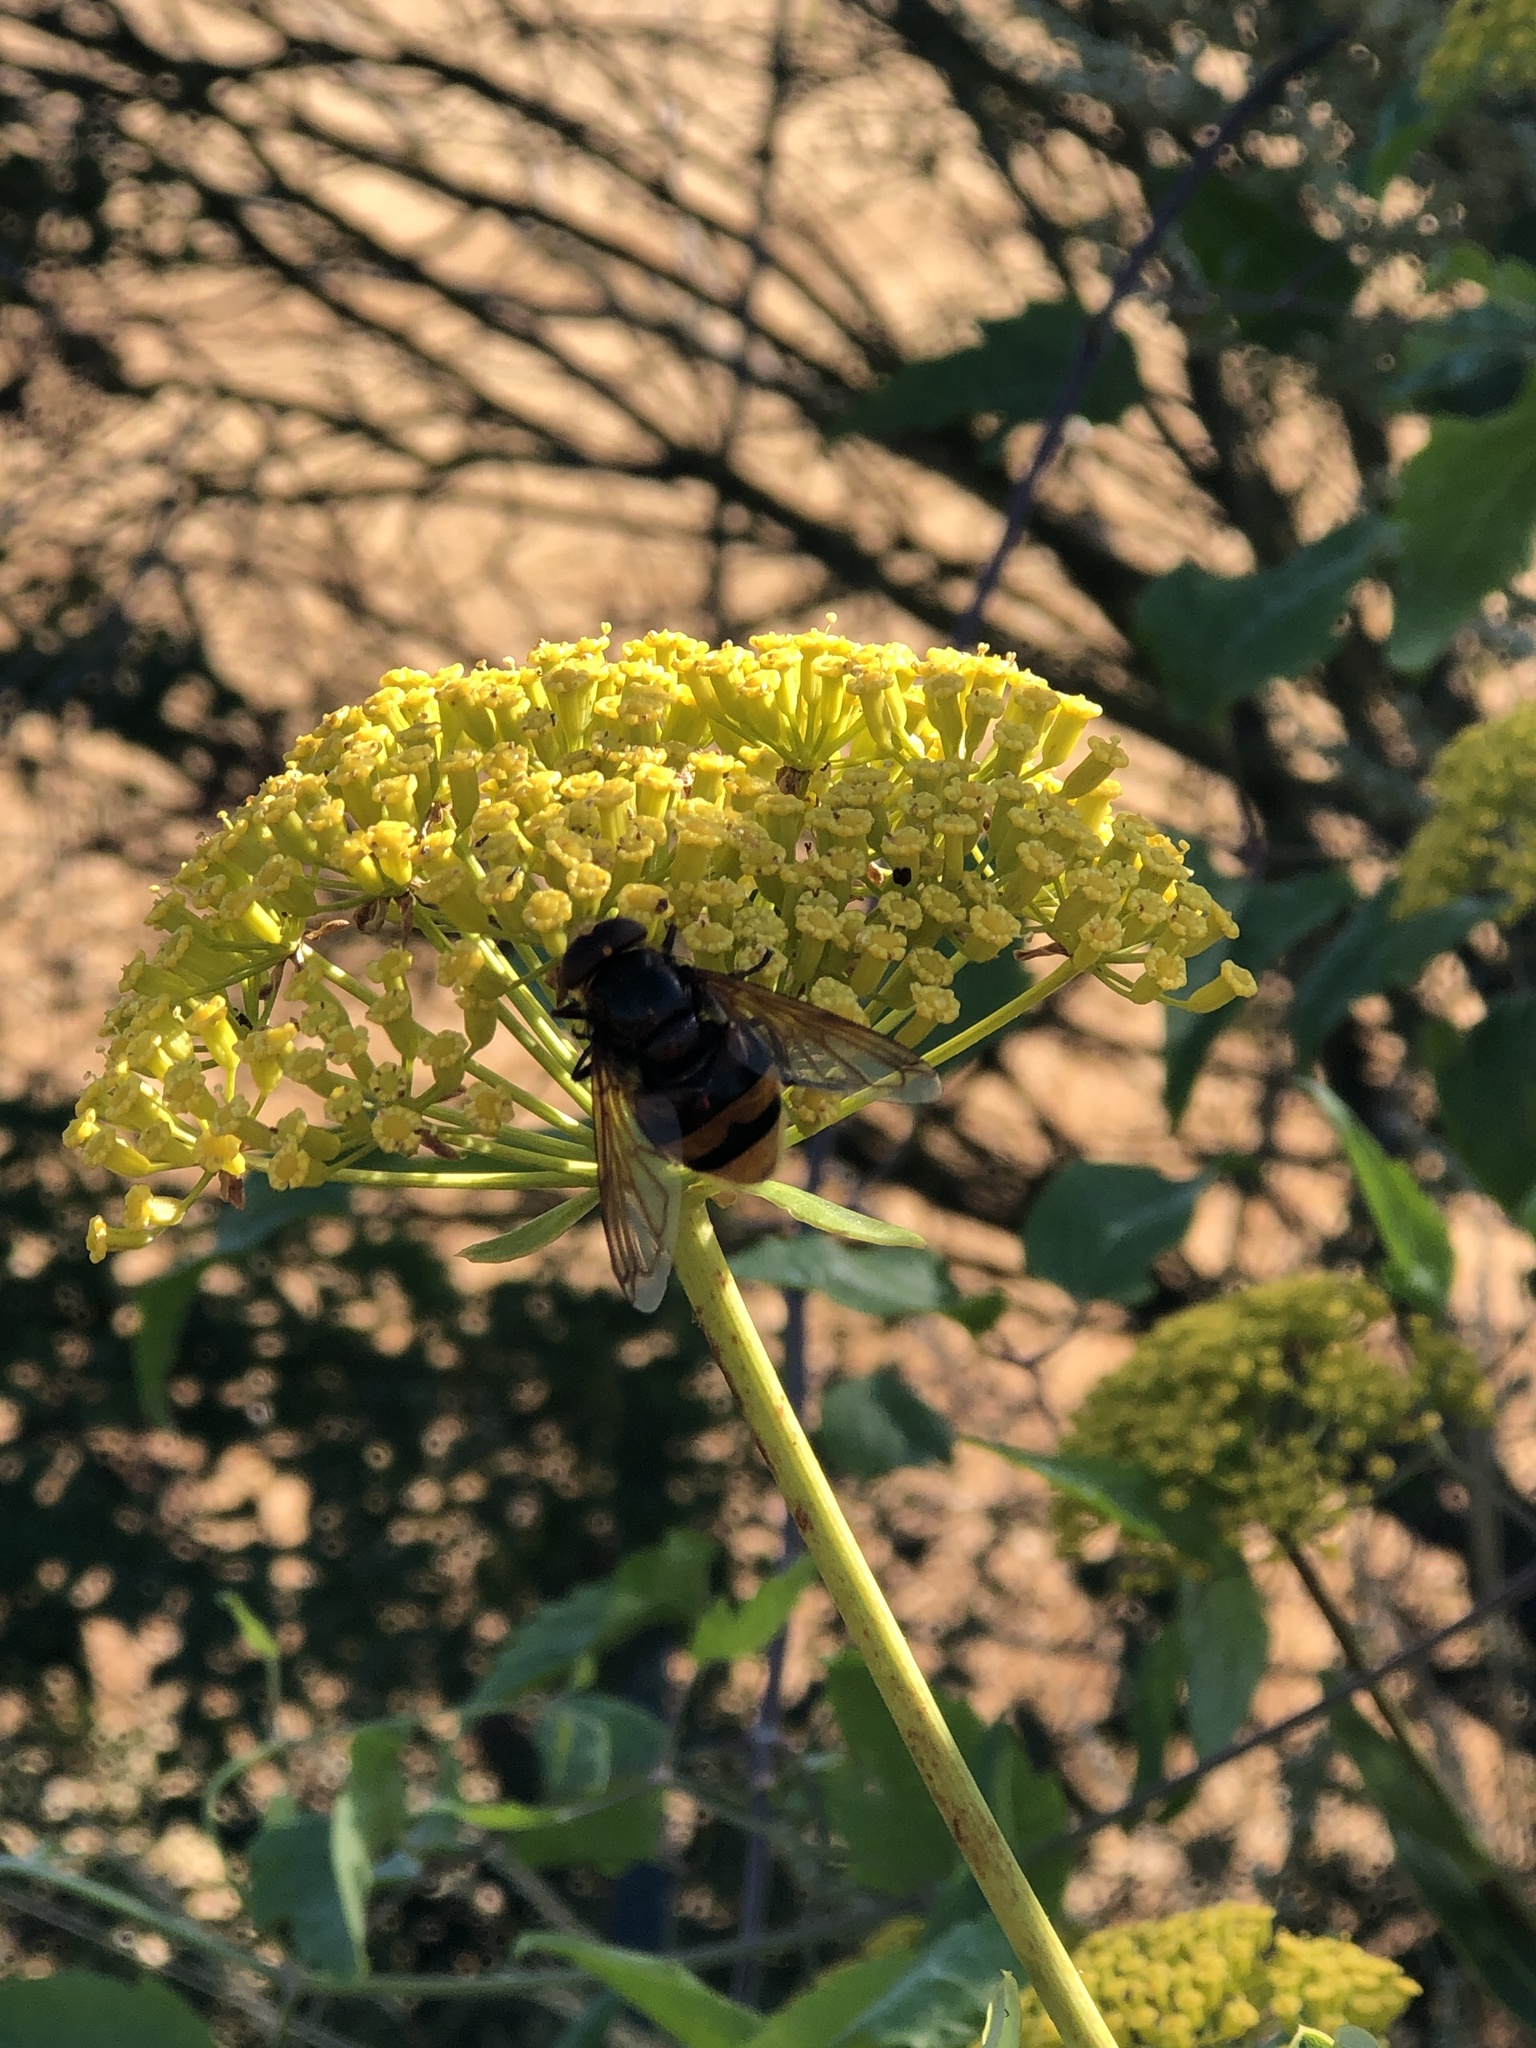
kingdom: Animalia
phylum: Arthropoda
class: Insecta
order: Diptera
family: Syrphidae
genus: Volucella
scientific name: Volucella zonaria
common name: Hornet hoverfly
